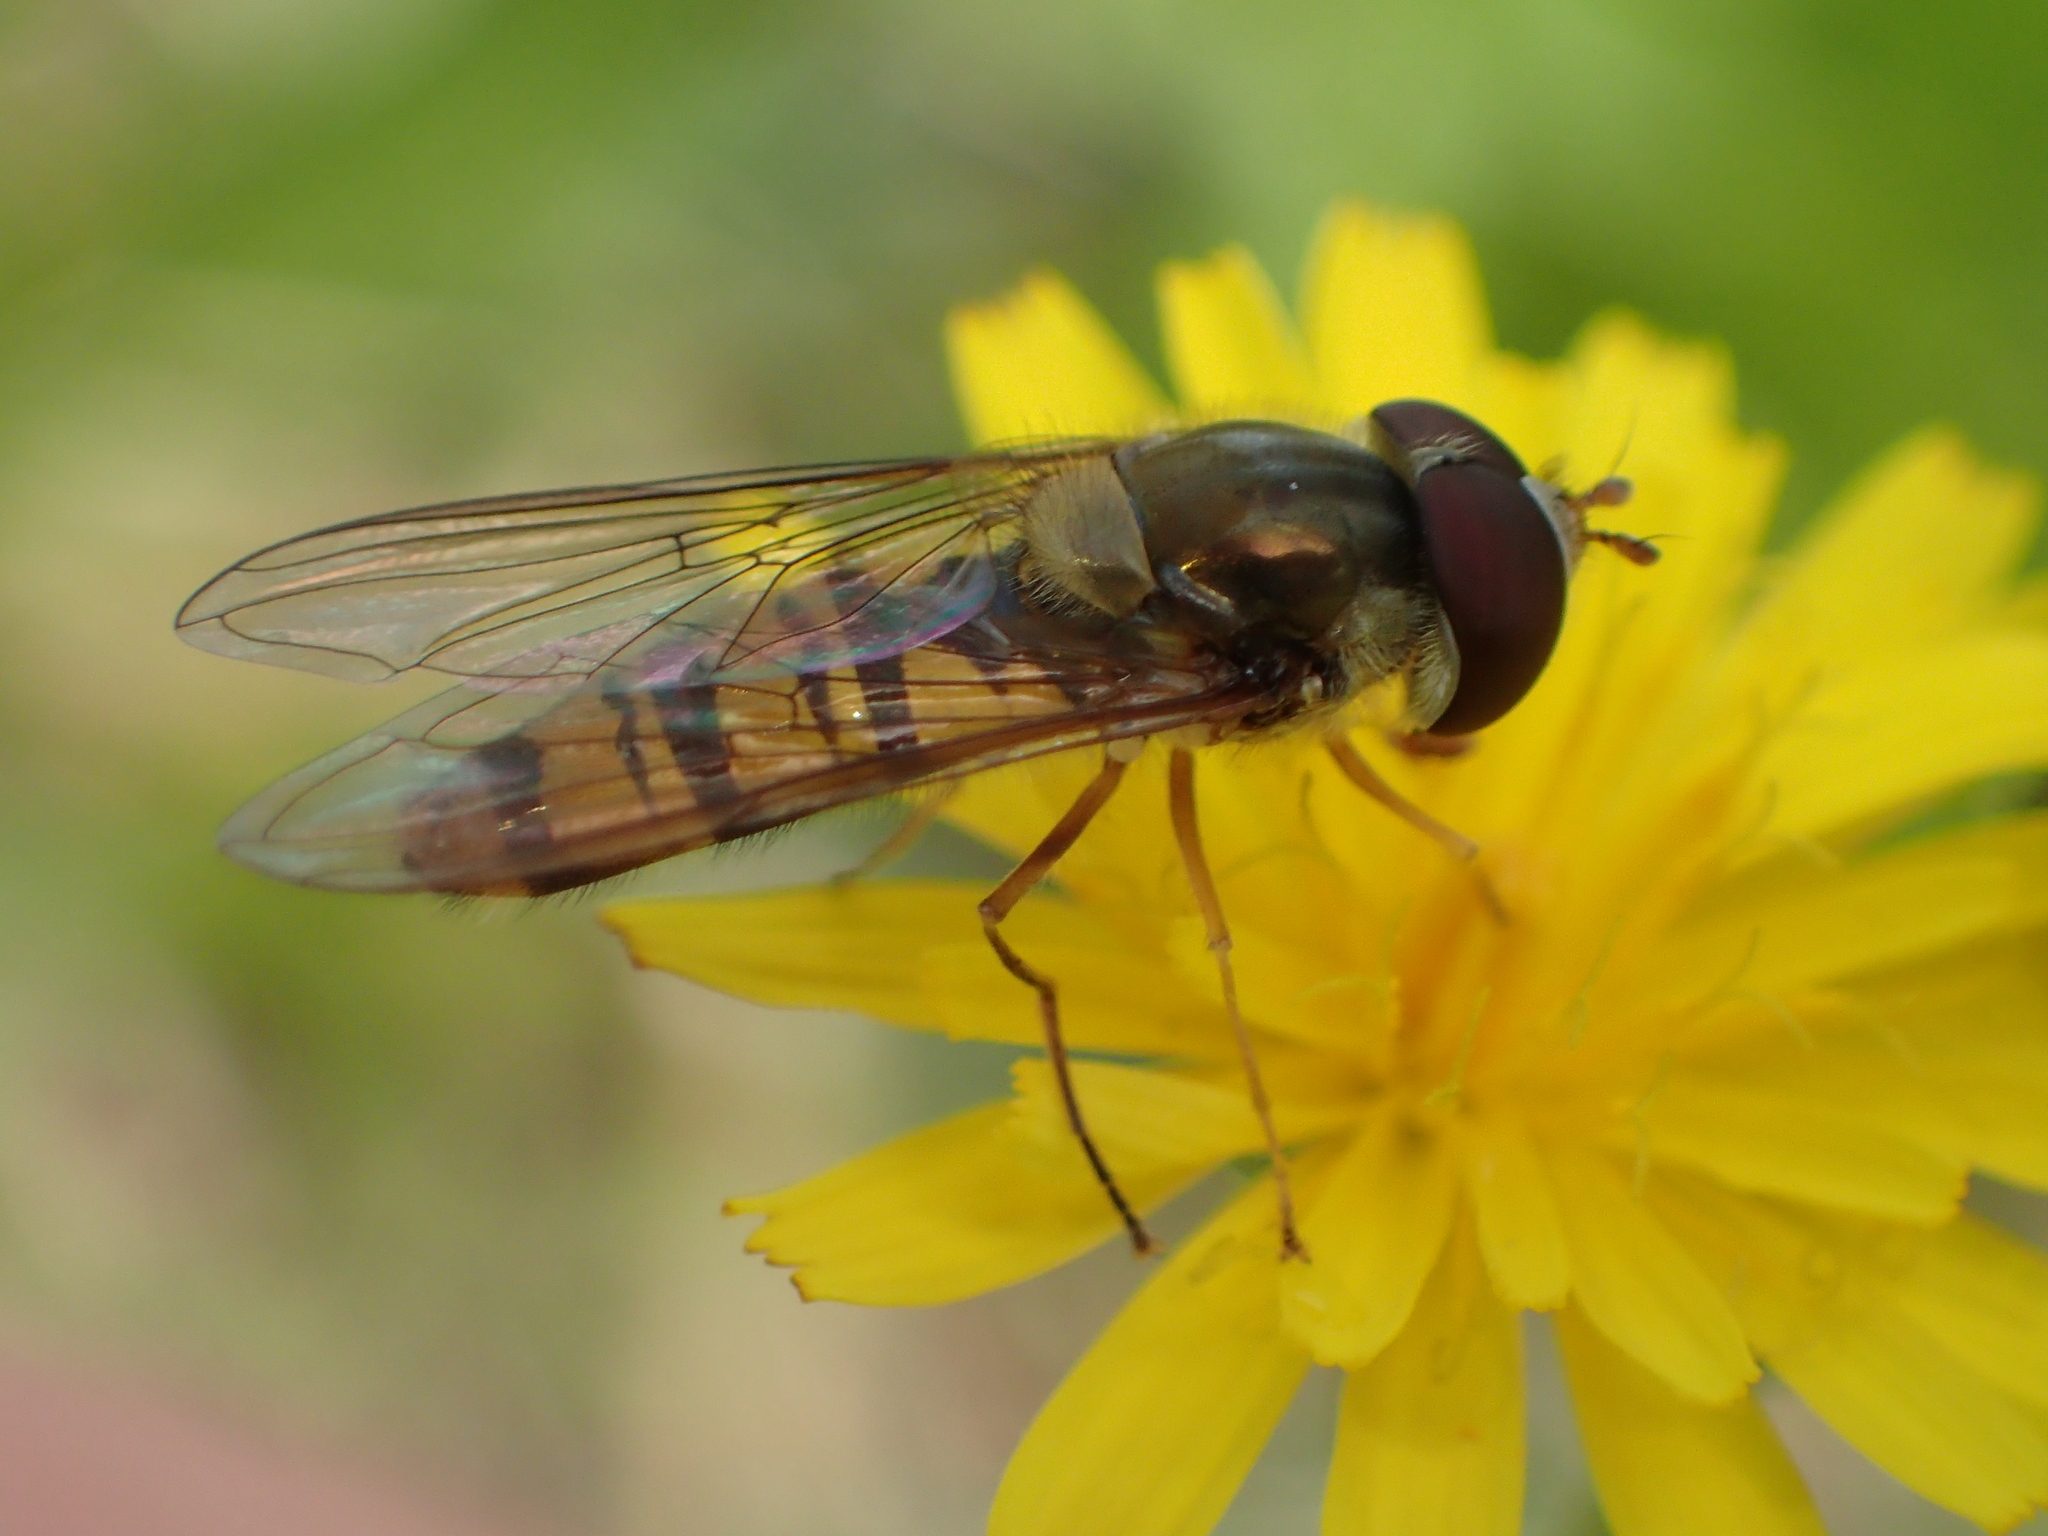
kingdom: Animalia
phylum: Arthropoda
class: Insecta
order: Diptera
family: Syrphidae
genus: Episyrphus
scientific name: Episyrphus balteatus
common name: Marmalade hoverfly
